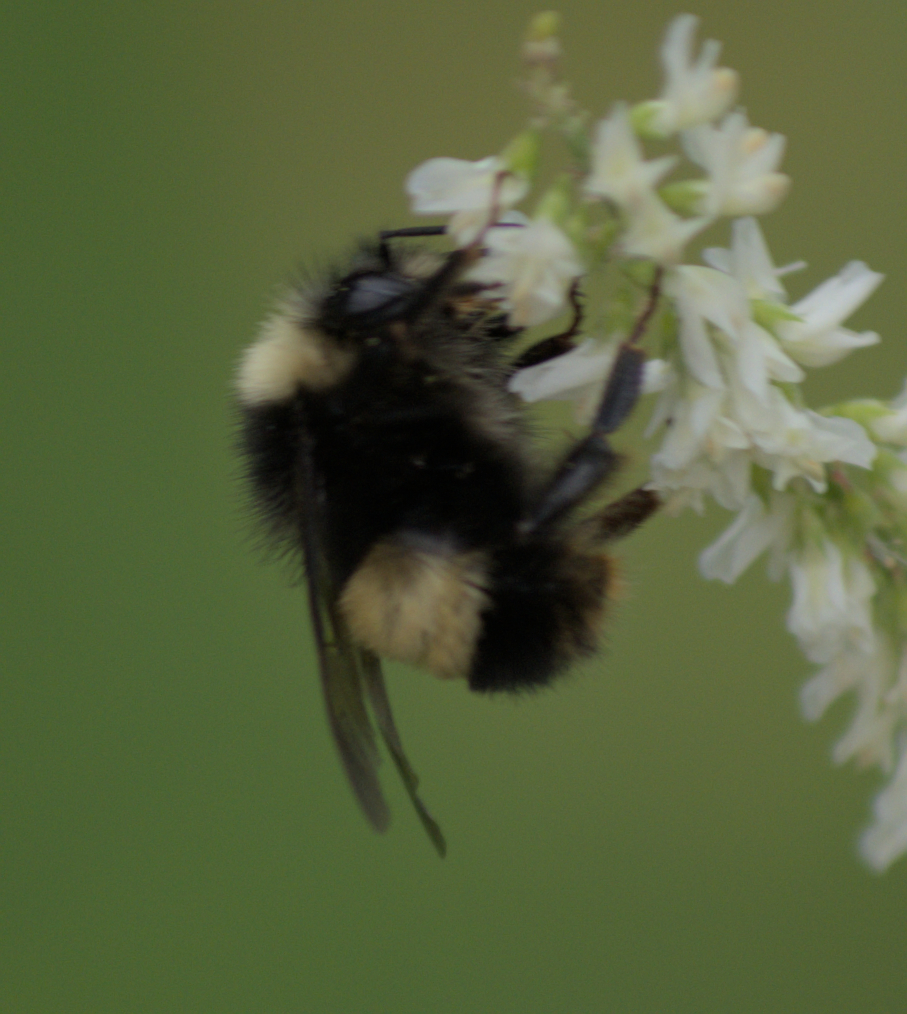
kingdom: Animalia
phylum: Arthropoda
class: Insecta
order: Hymenoptera
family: Apidae
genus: Bombus
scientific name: Bombus terricola
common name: Yellow-banded bumble bee
